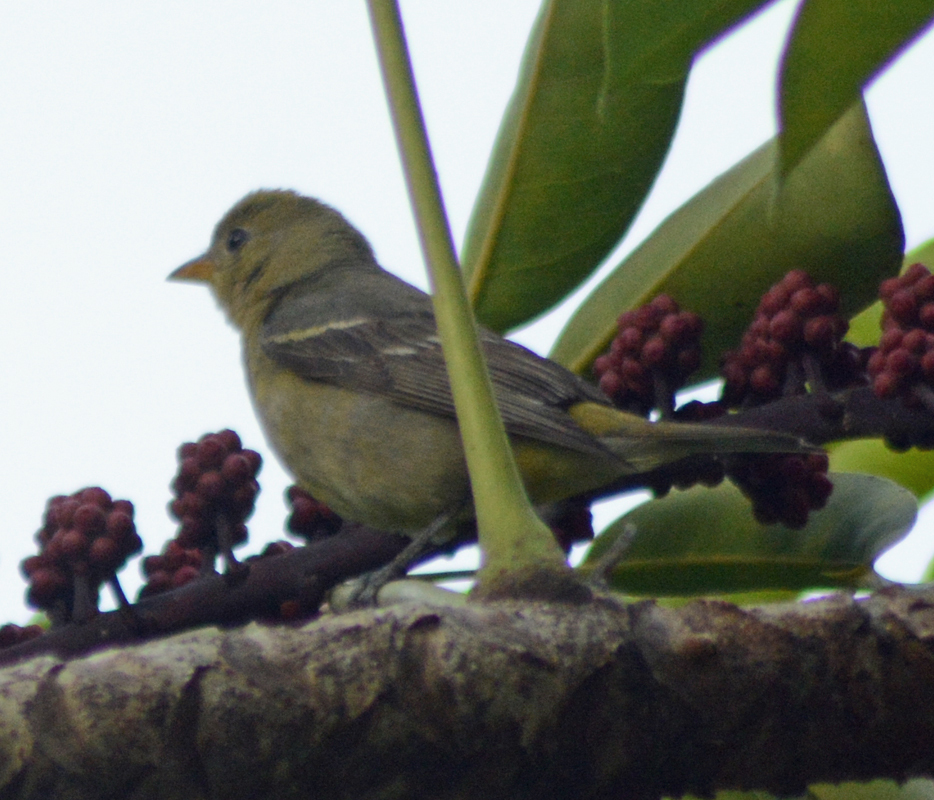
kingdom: Animalia
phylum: Chordata
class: Aves
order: Passeriformes
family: Cardinalidae
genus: Piranga
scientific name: Piranga ludoviciana
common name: Western tanager
